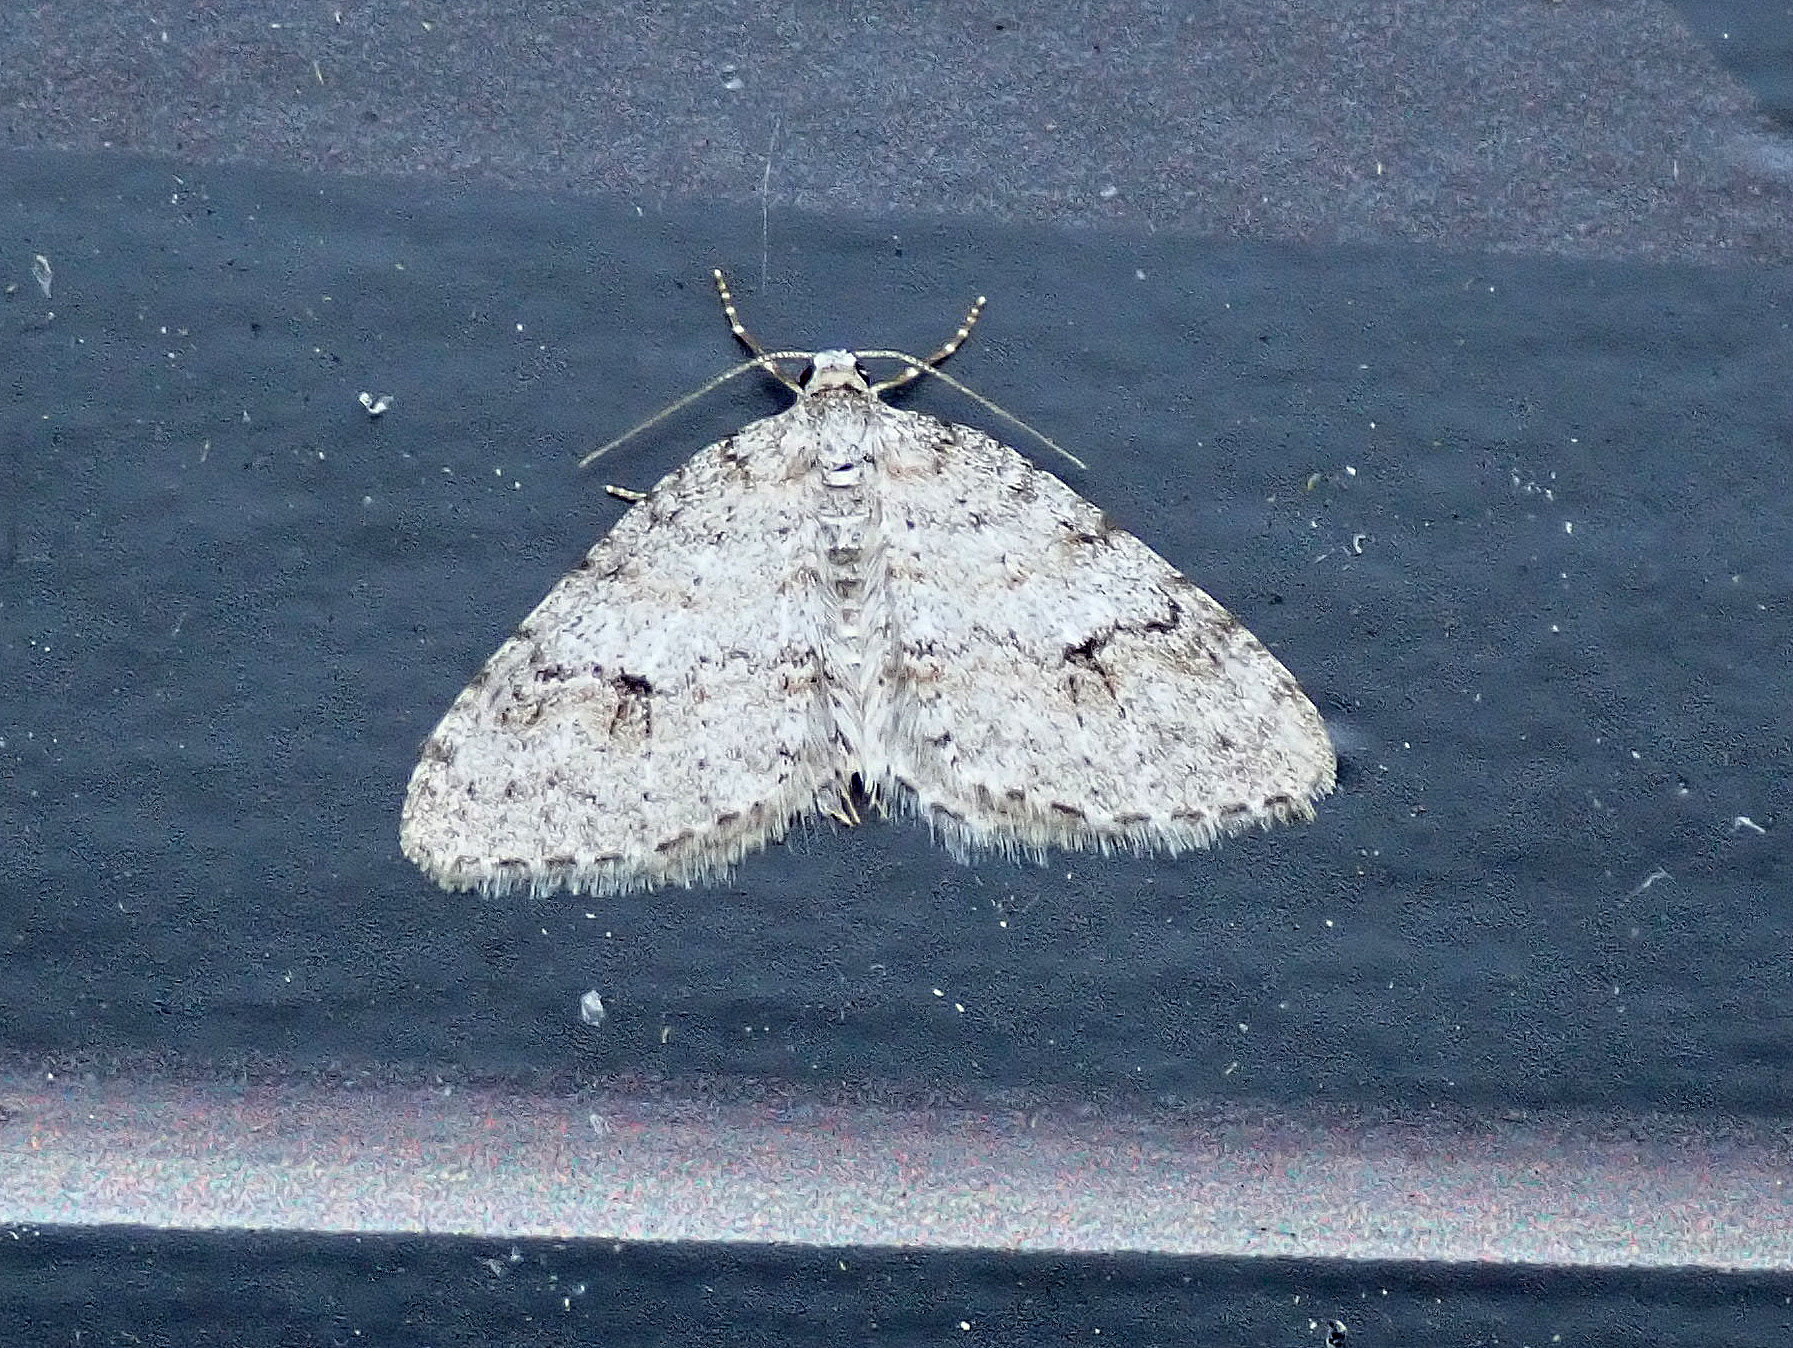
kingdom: Animalia
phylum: Arthropoda
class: Insecta
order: Lepidoptera
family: Geometridae
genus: Venusia
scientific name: Venusia comptaria
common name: Brown-shaded carpet
